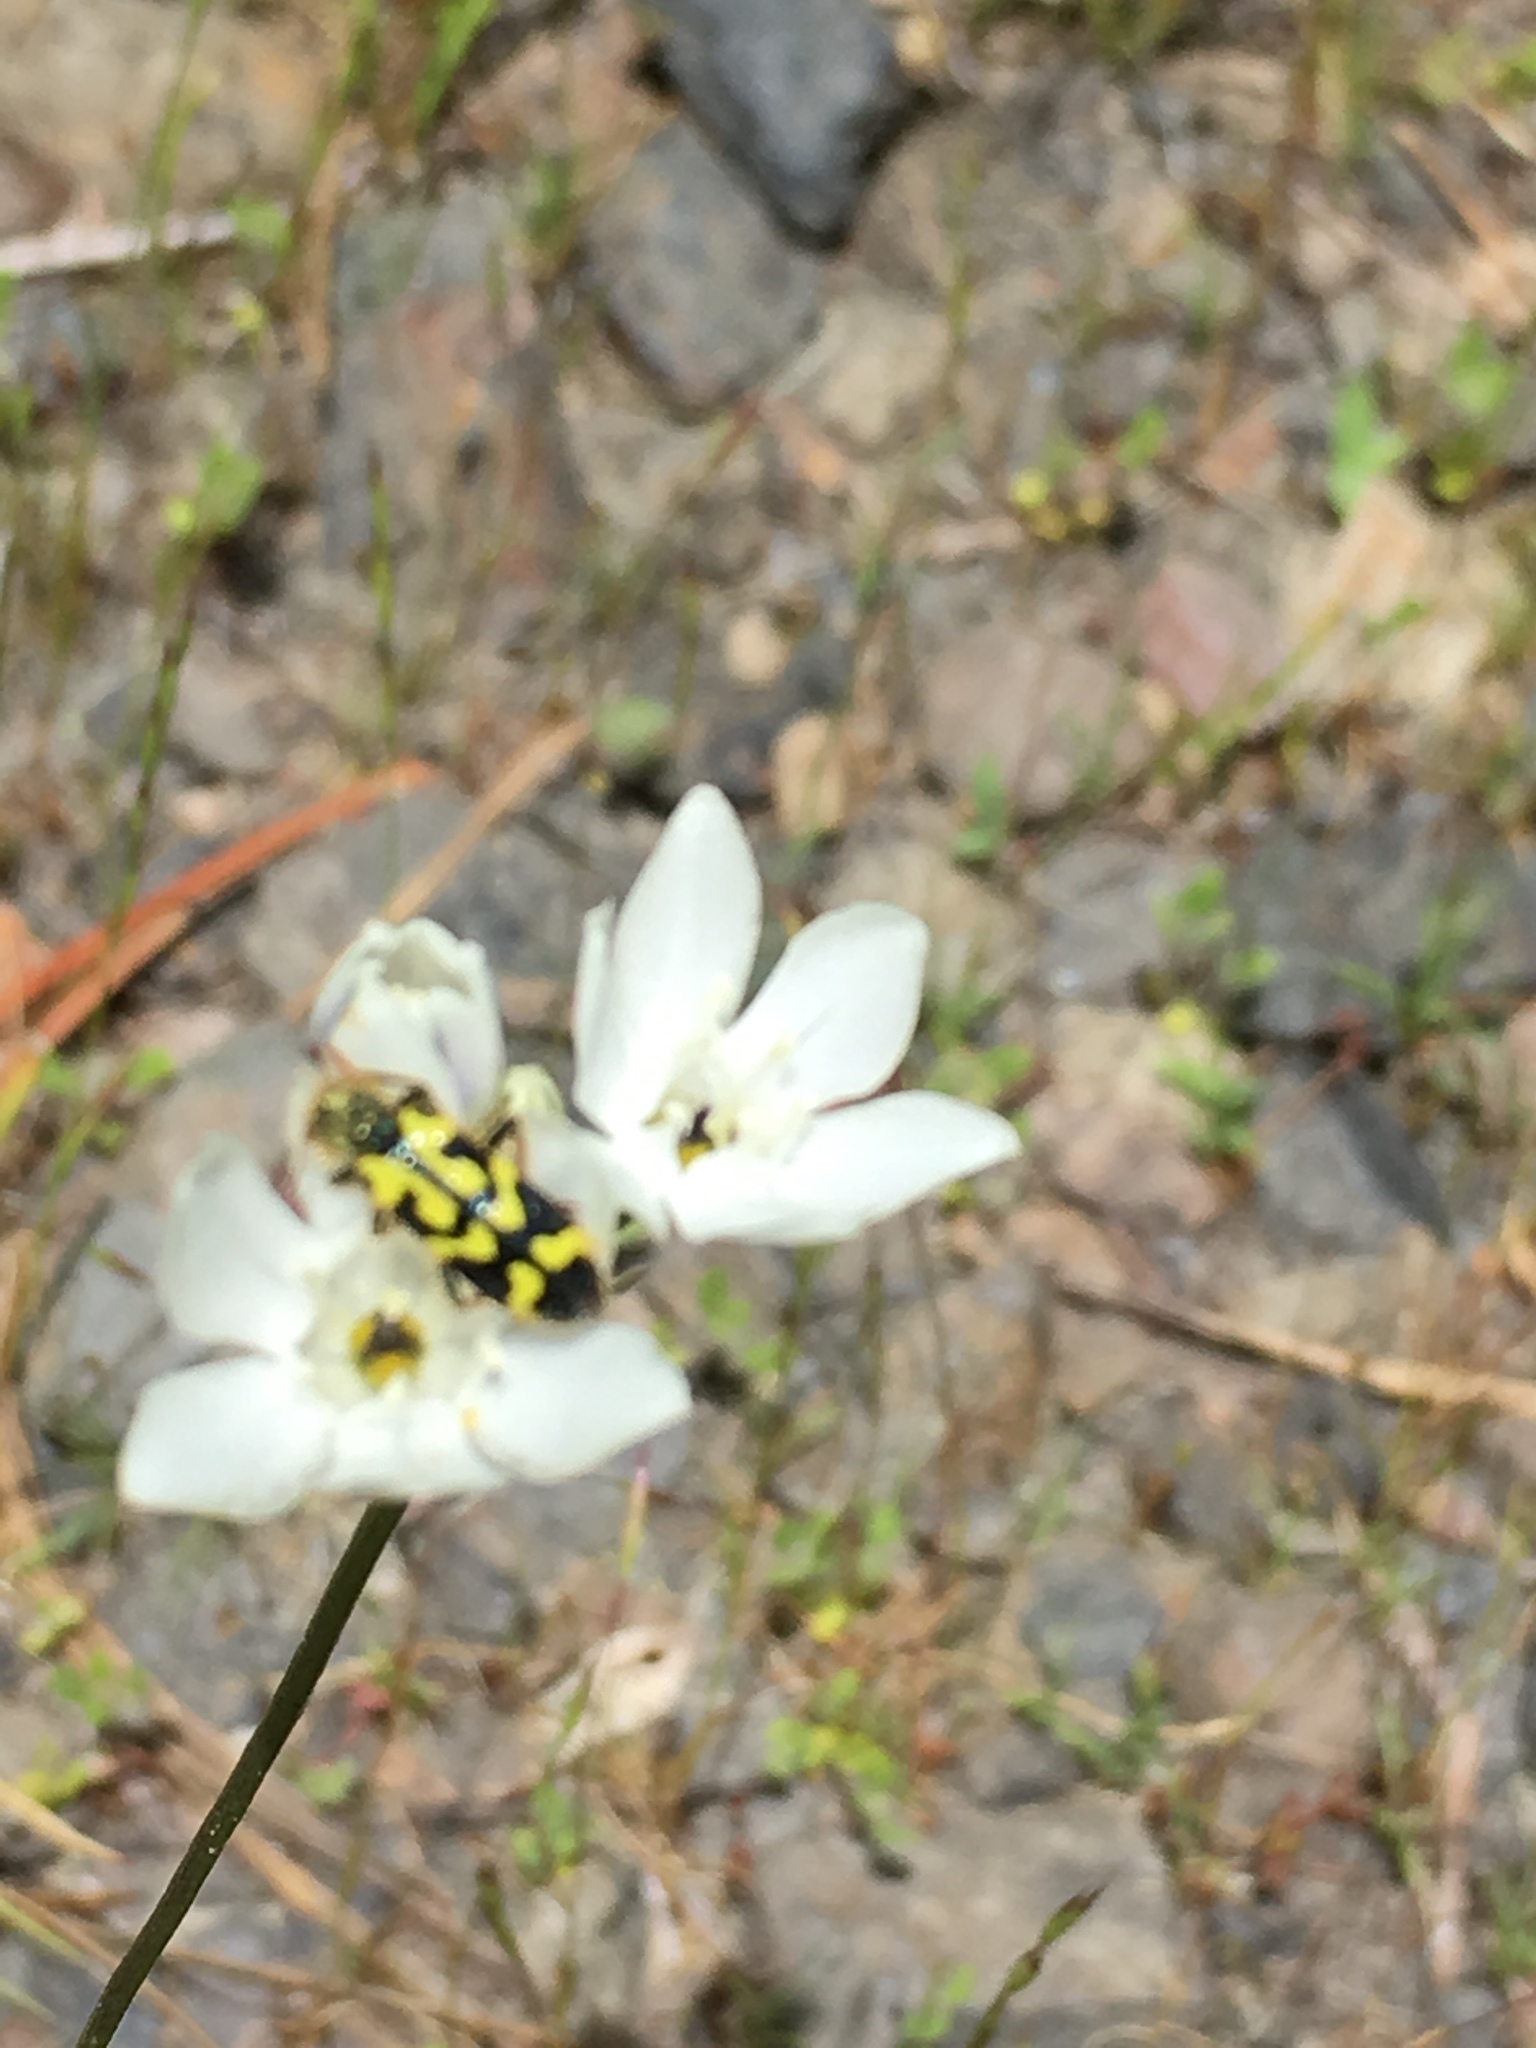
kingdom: Animalia
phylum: Arthropoda
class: Insecta
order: Coleoptera
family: Cleridae
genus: Trichodes
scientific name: Trichodes ornatus
